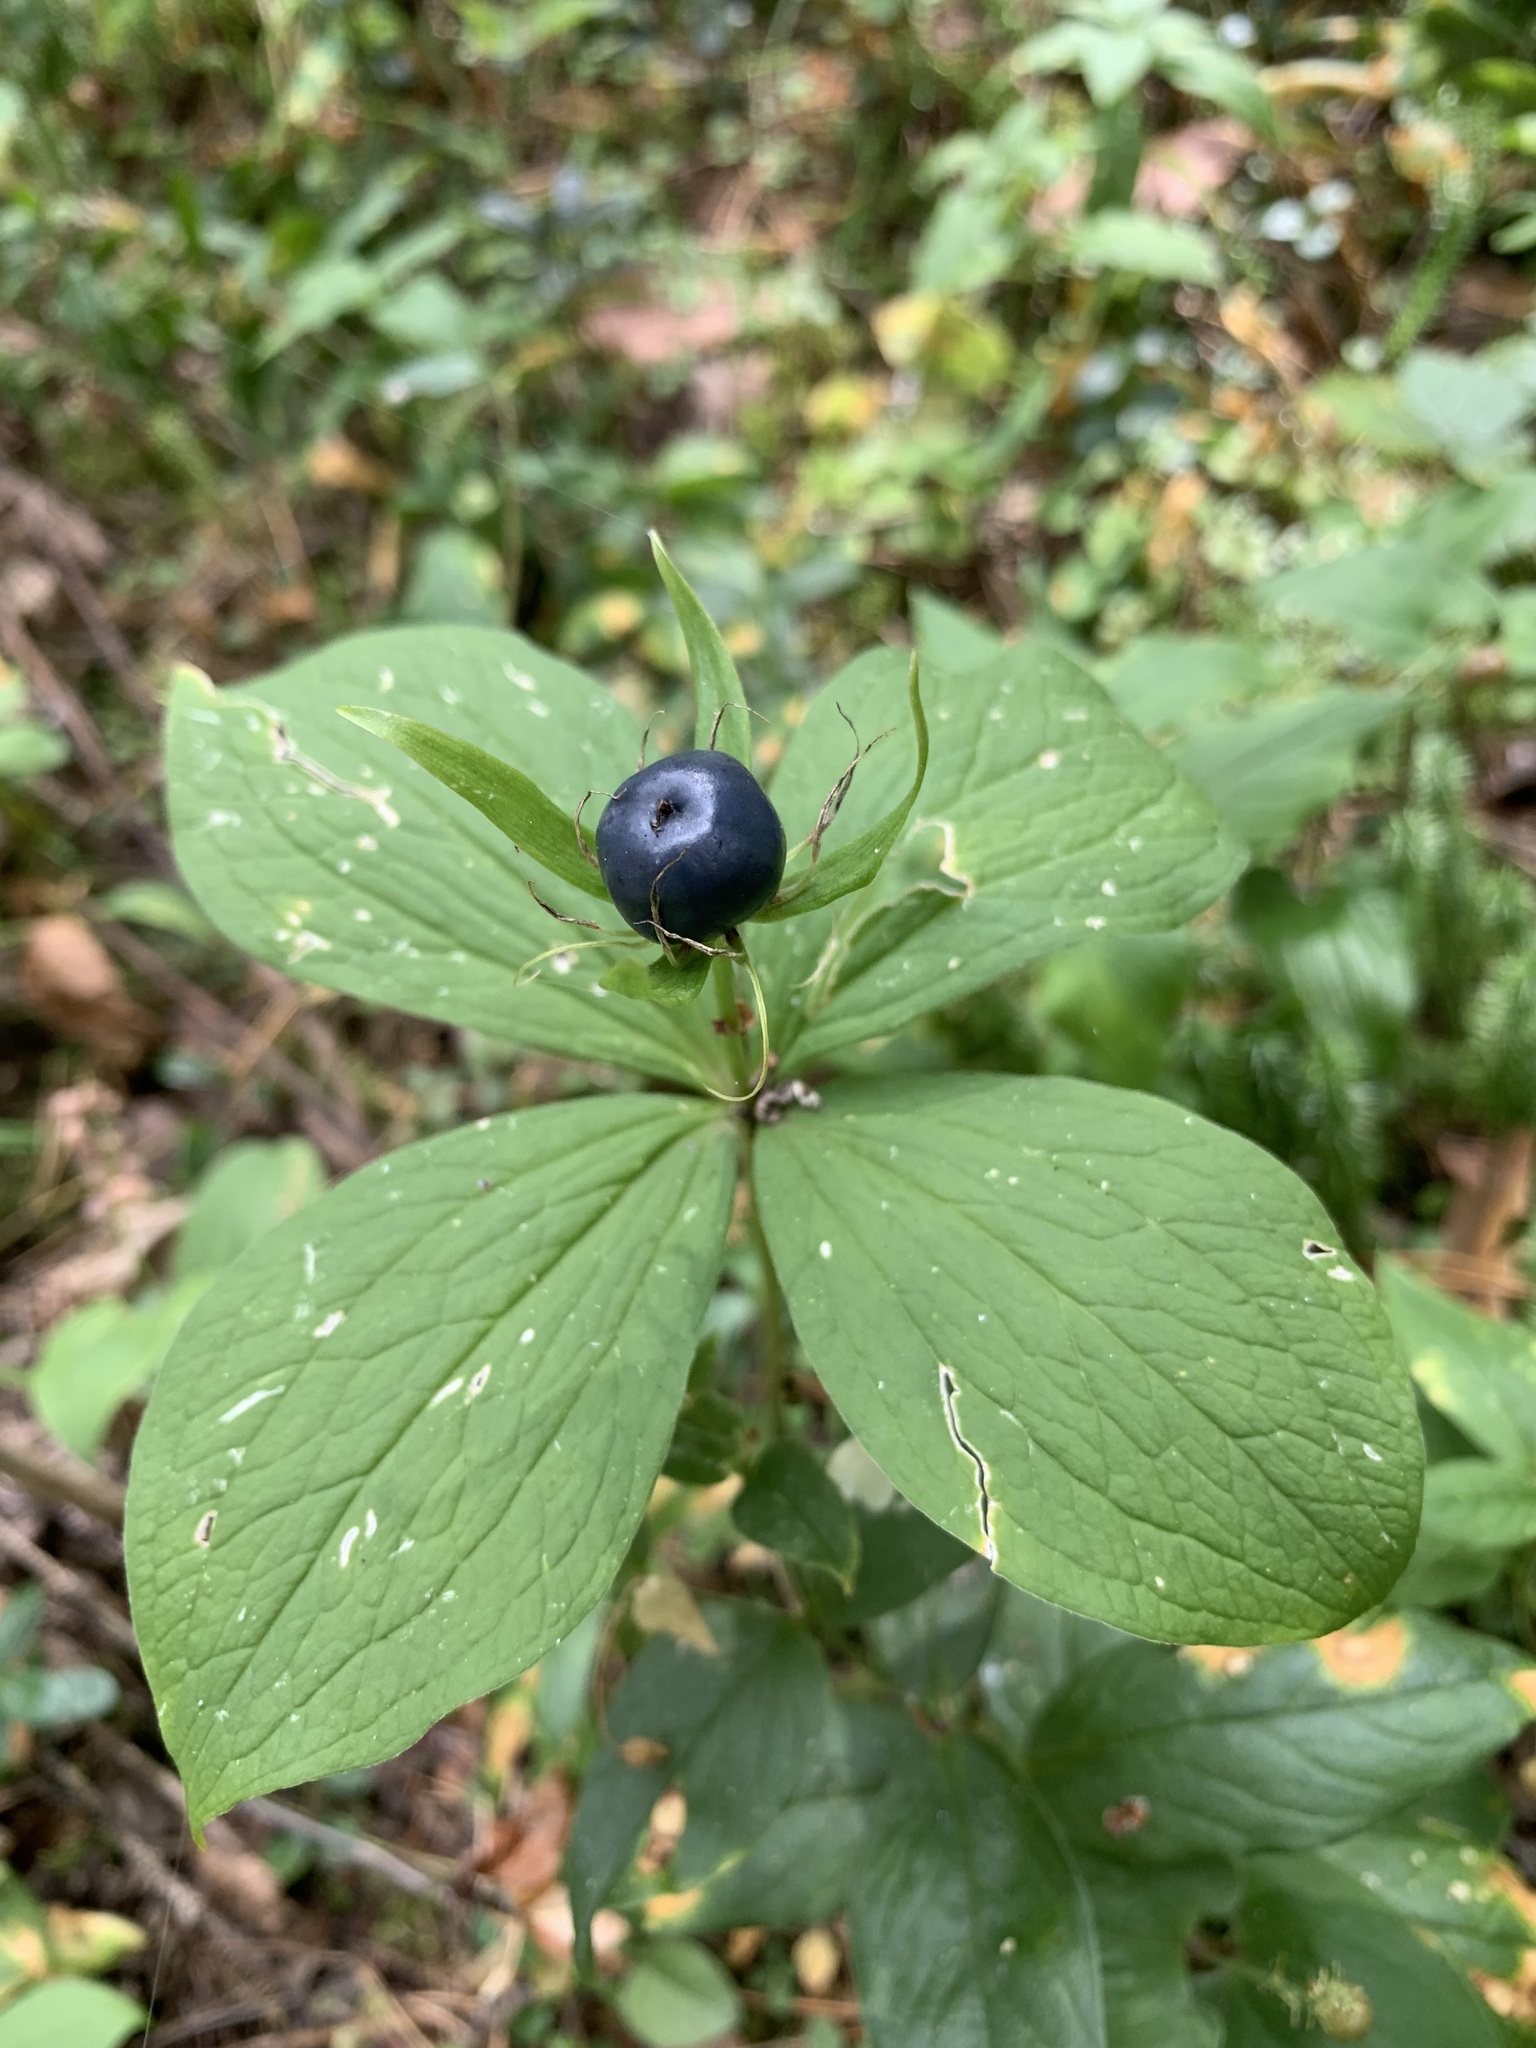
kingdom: Plantae
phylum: Tracheophyta
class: Liliopsida
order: Liliales
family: Melanthiaceae
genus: Paris
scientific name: Paris quadrifolia
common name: Herb-paris
